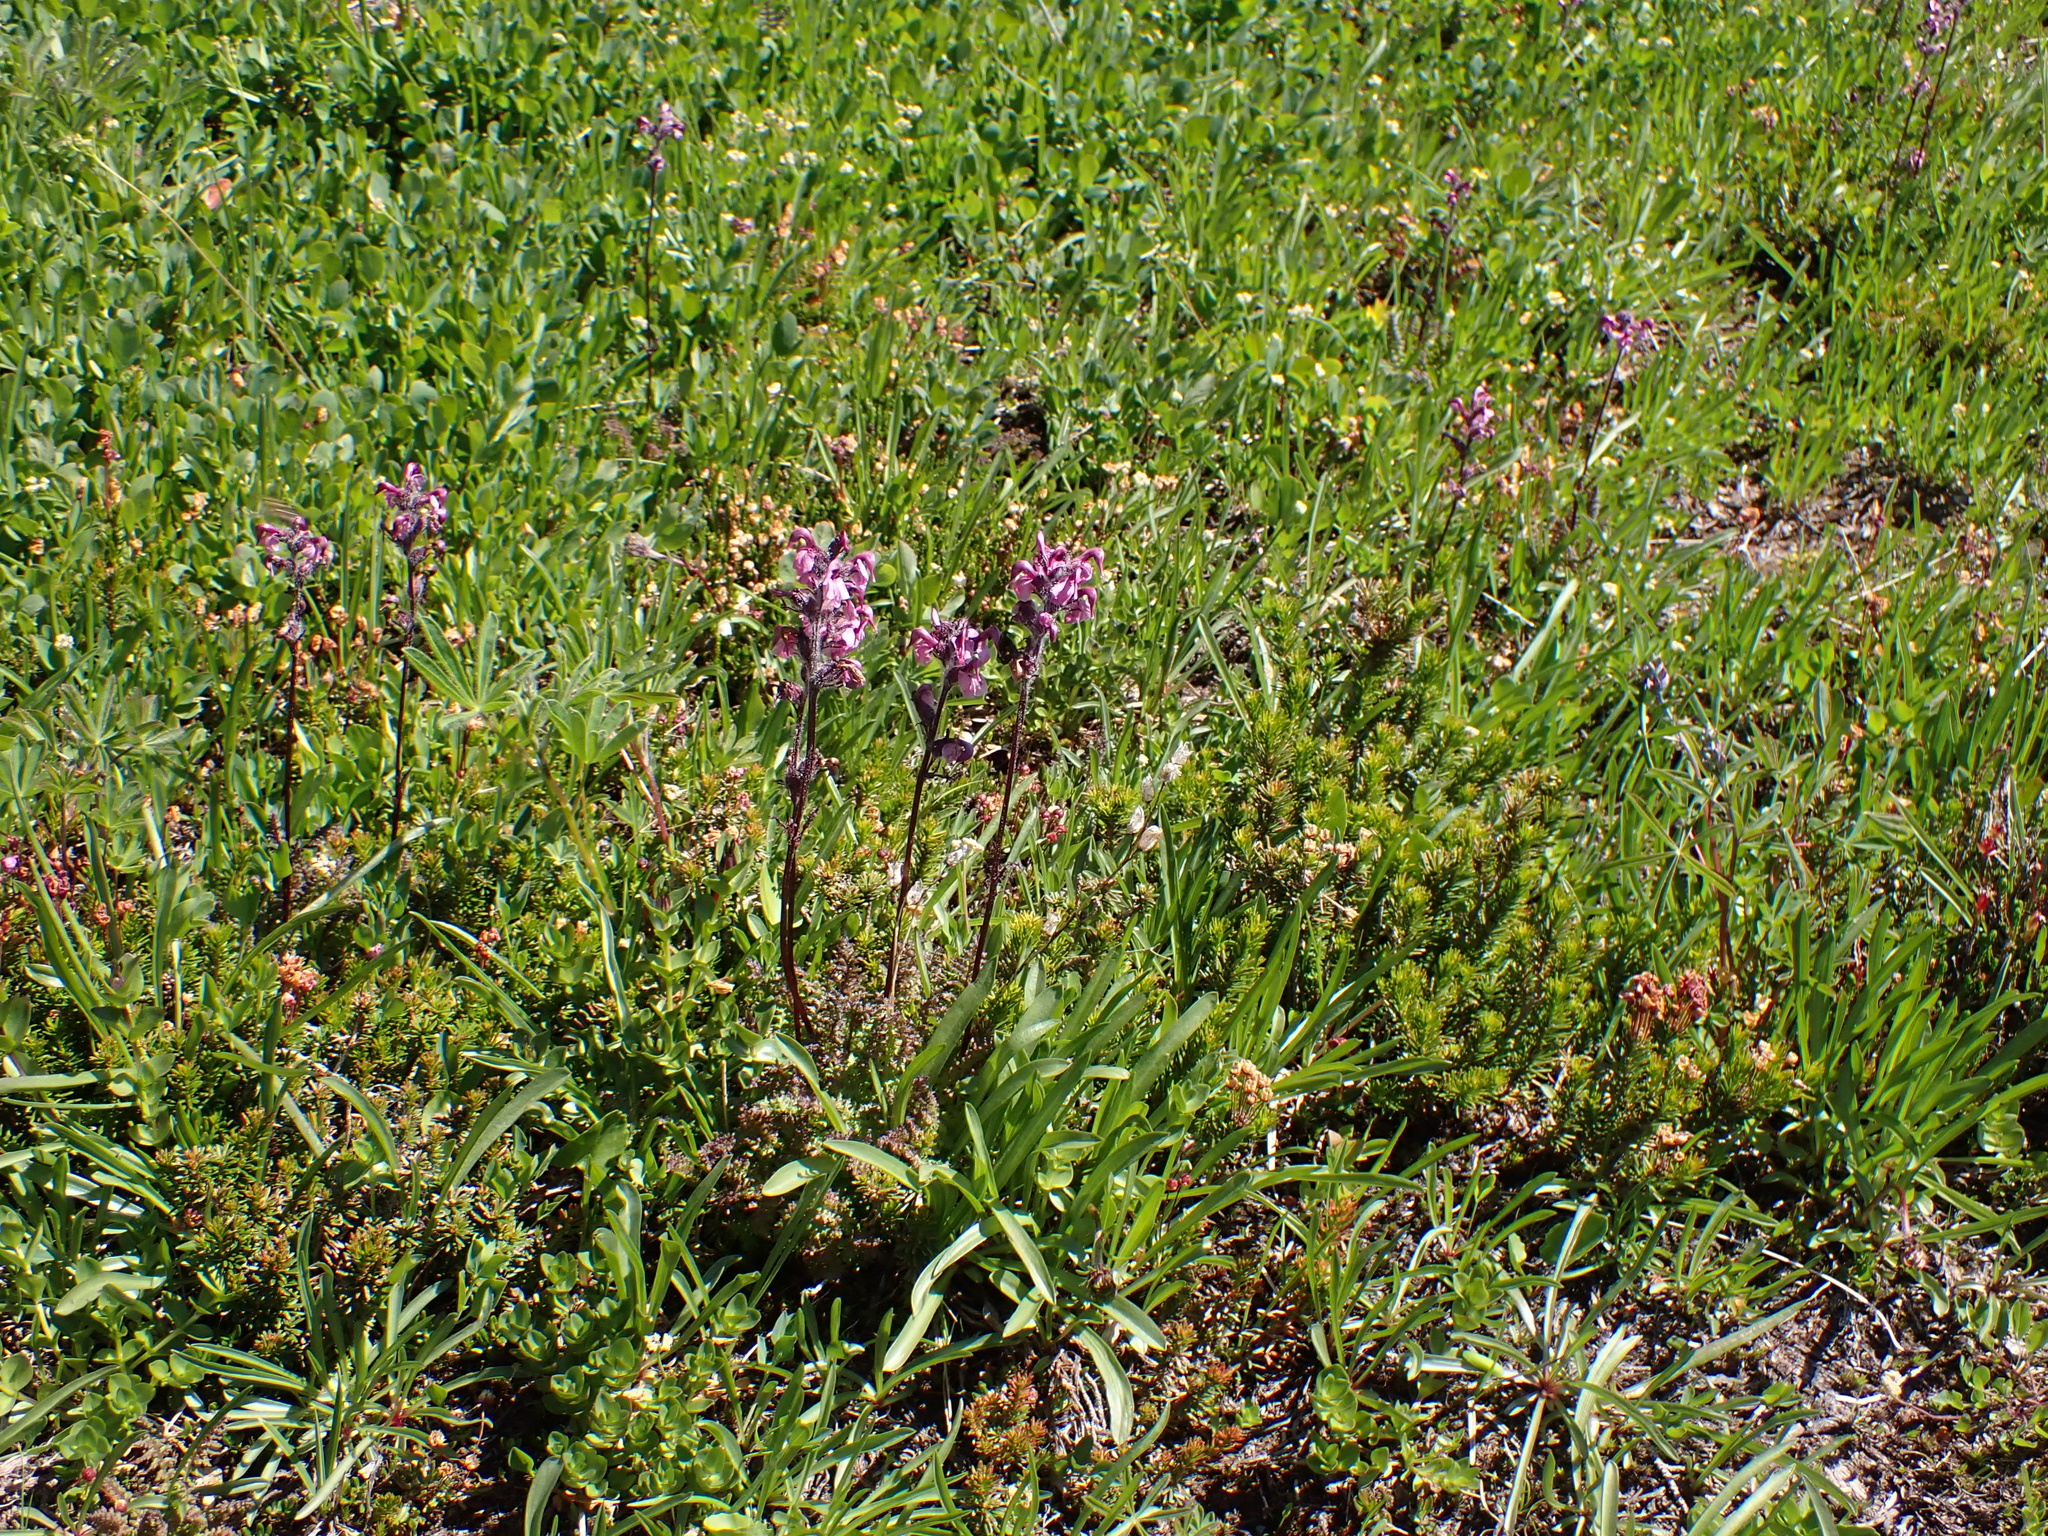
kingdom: Plantae
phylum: Tracheophyta
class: Magnoliopsida
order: Lamiales
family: Orobanchaceae
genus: Pedicularis
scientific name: Pedicularis ornithorhynchos
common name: Bird's-beak lousewort
